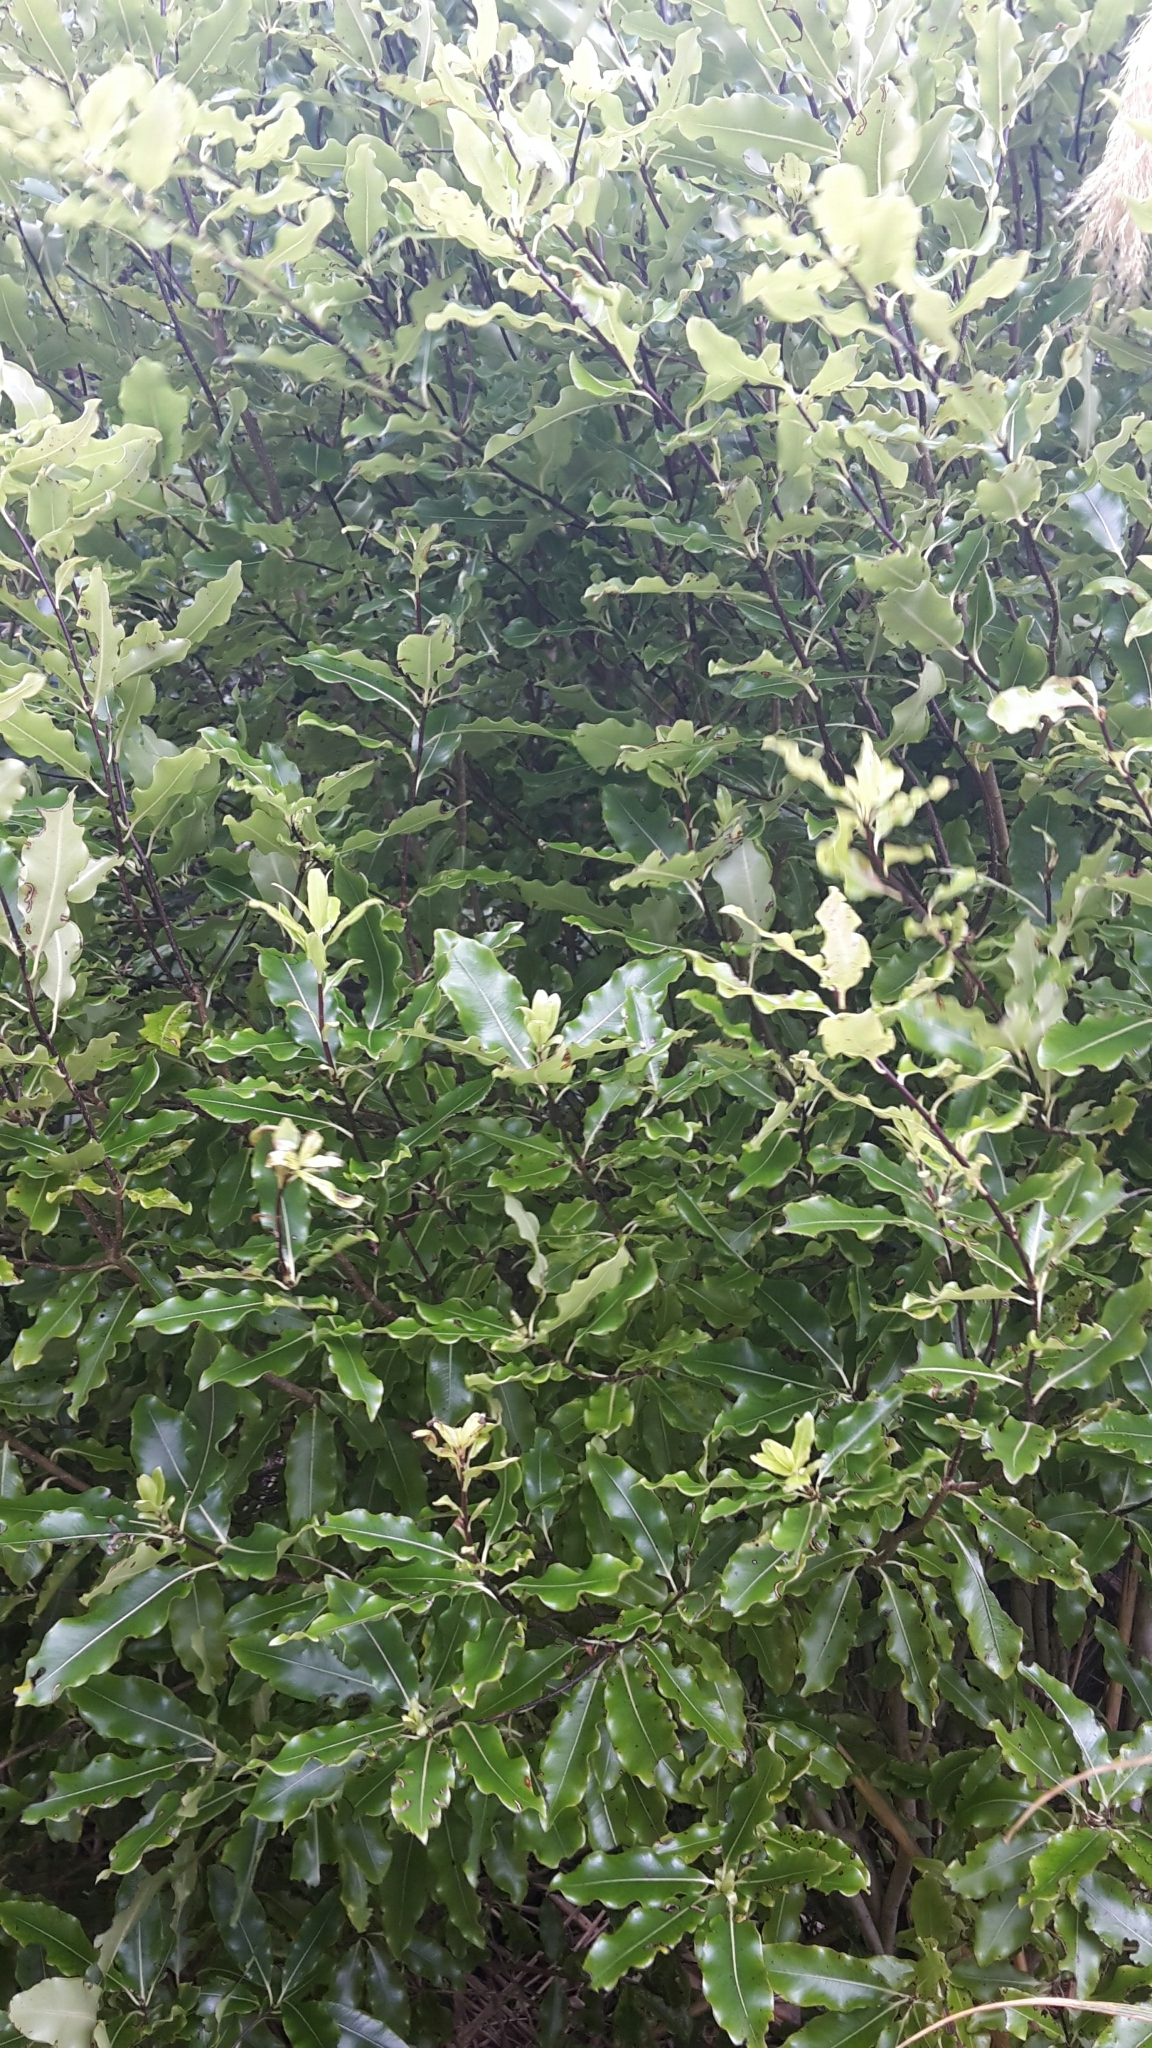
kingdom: Plantae
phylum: Tracheophyta
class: Magnoliopsida
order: Apiales
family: Pittosporaceae
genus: Pittosporum
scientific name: Pittosporum eugenioides
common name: Lemonwood
